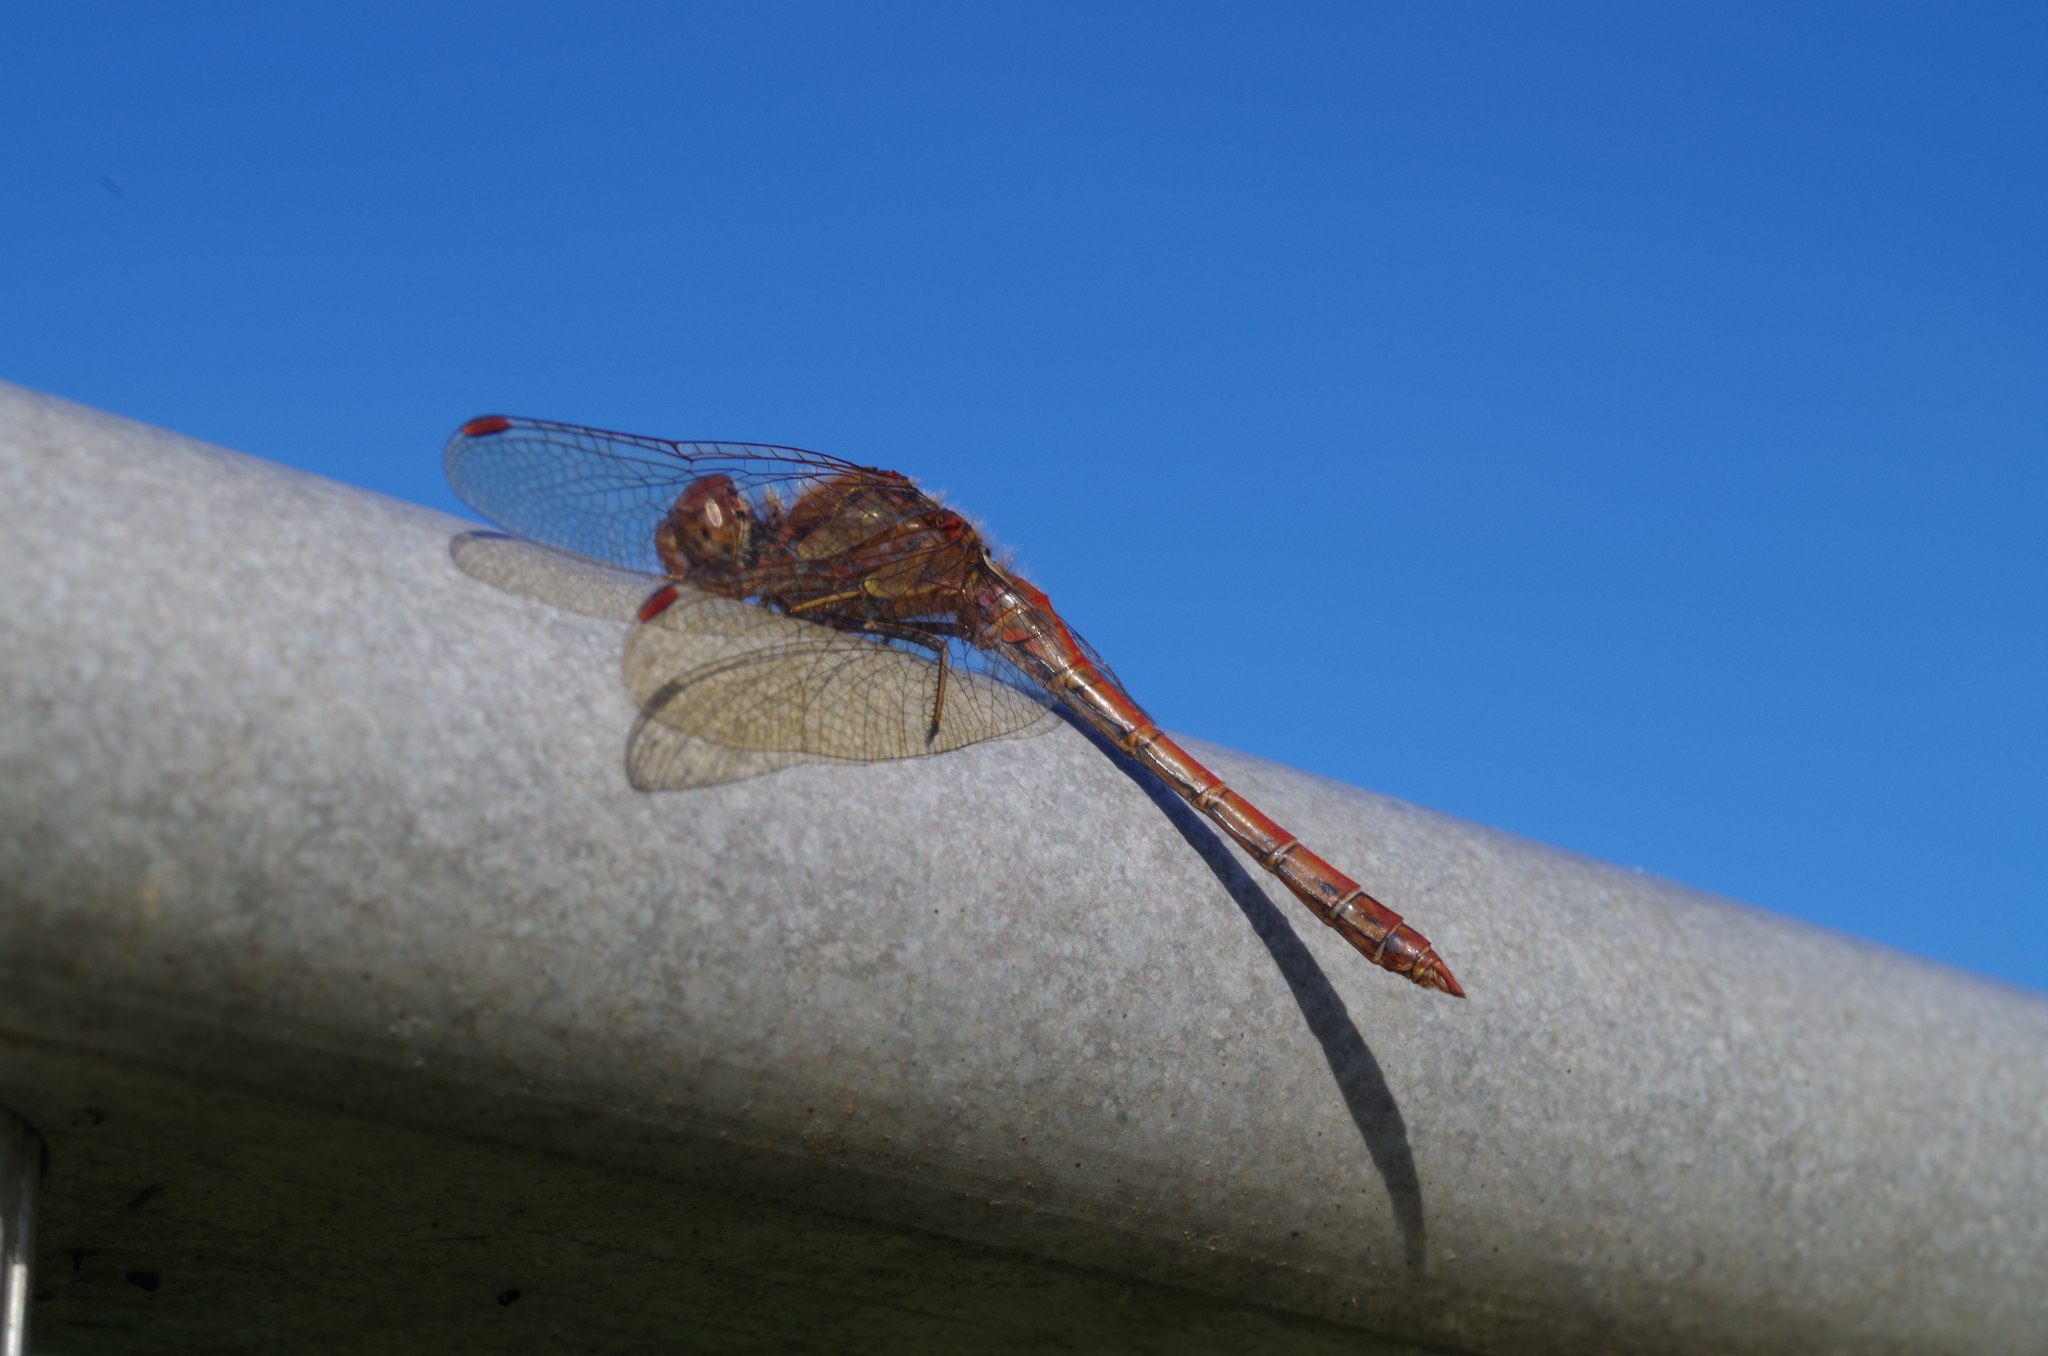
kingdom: Animalia
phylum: Arthropoda
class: Insecta
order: Odonata
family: Libellulidae
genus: Sympetrum
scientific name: Sympetrum striolatum
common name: Common darter
